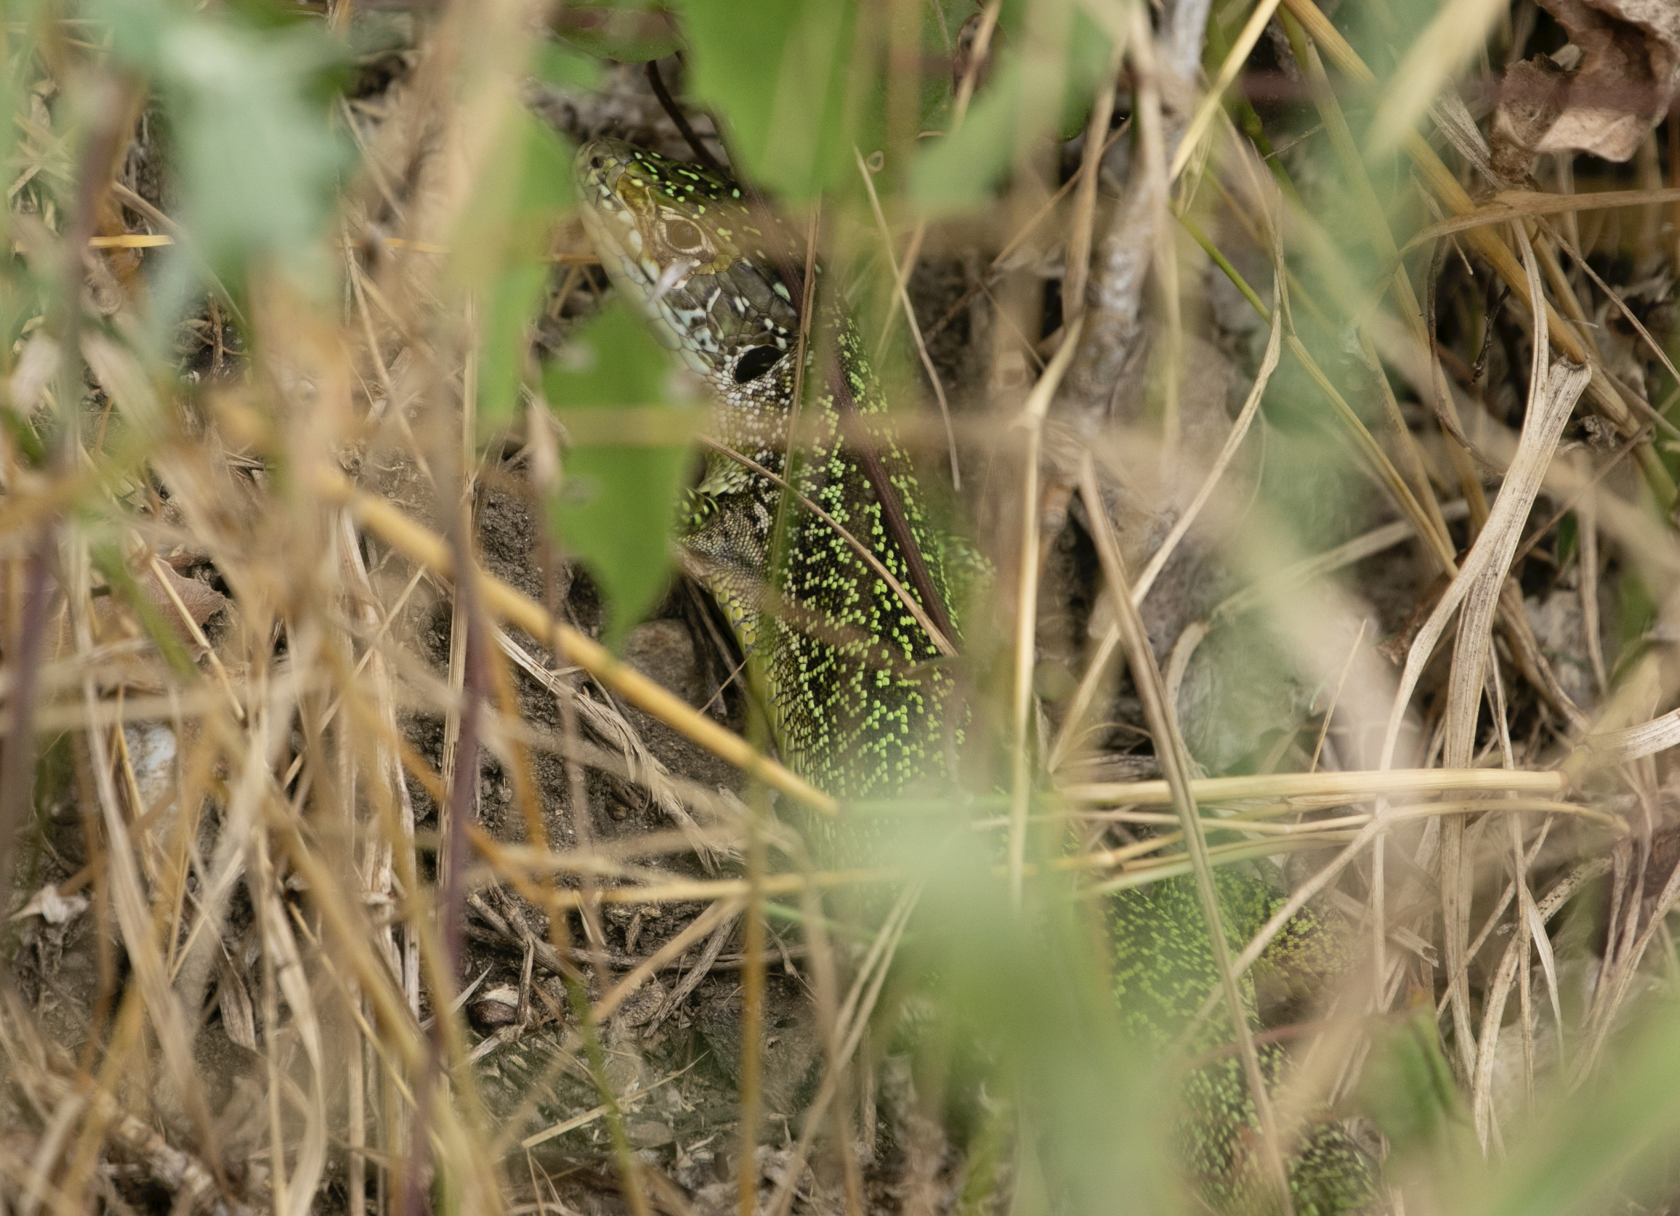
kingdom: Animalia
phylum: Chordata
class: Squamata
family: Lacertidae
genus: Lacerta
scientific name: Lacerta bilineata
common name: Western green lizard
